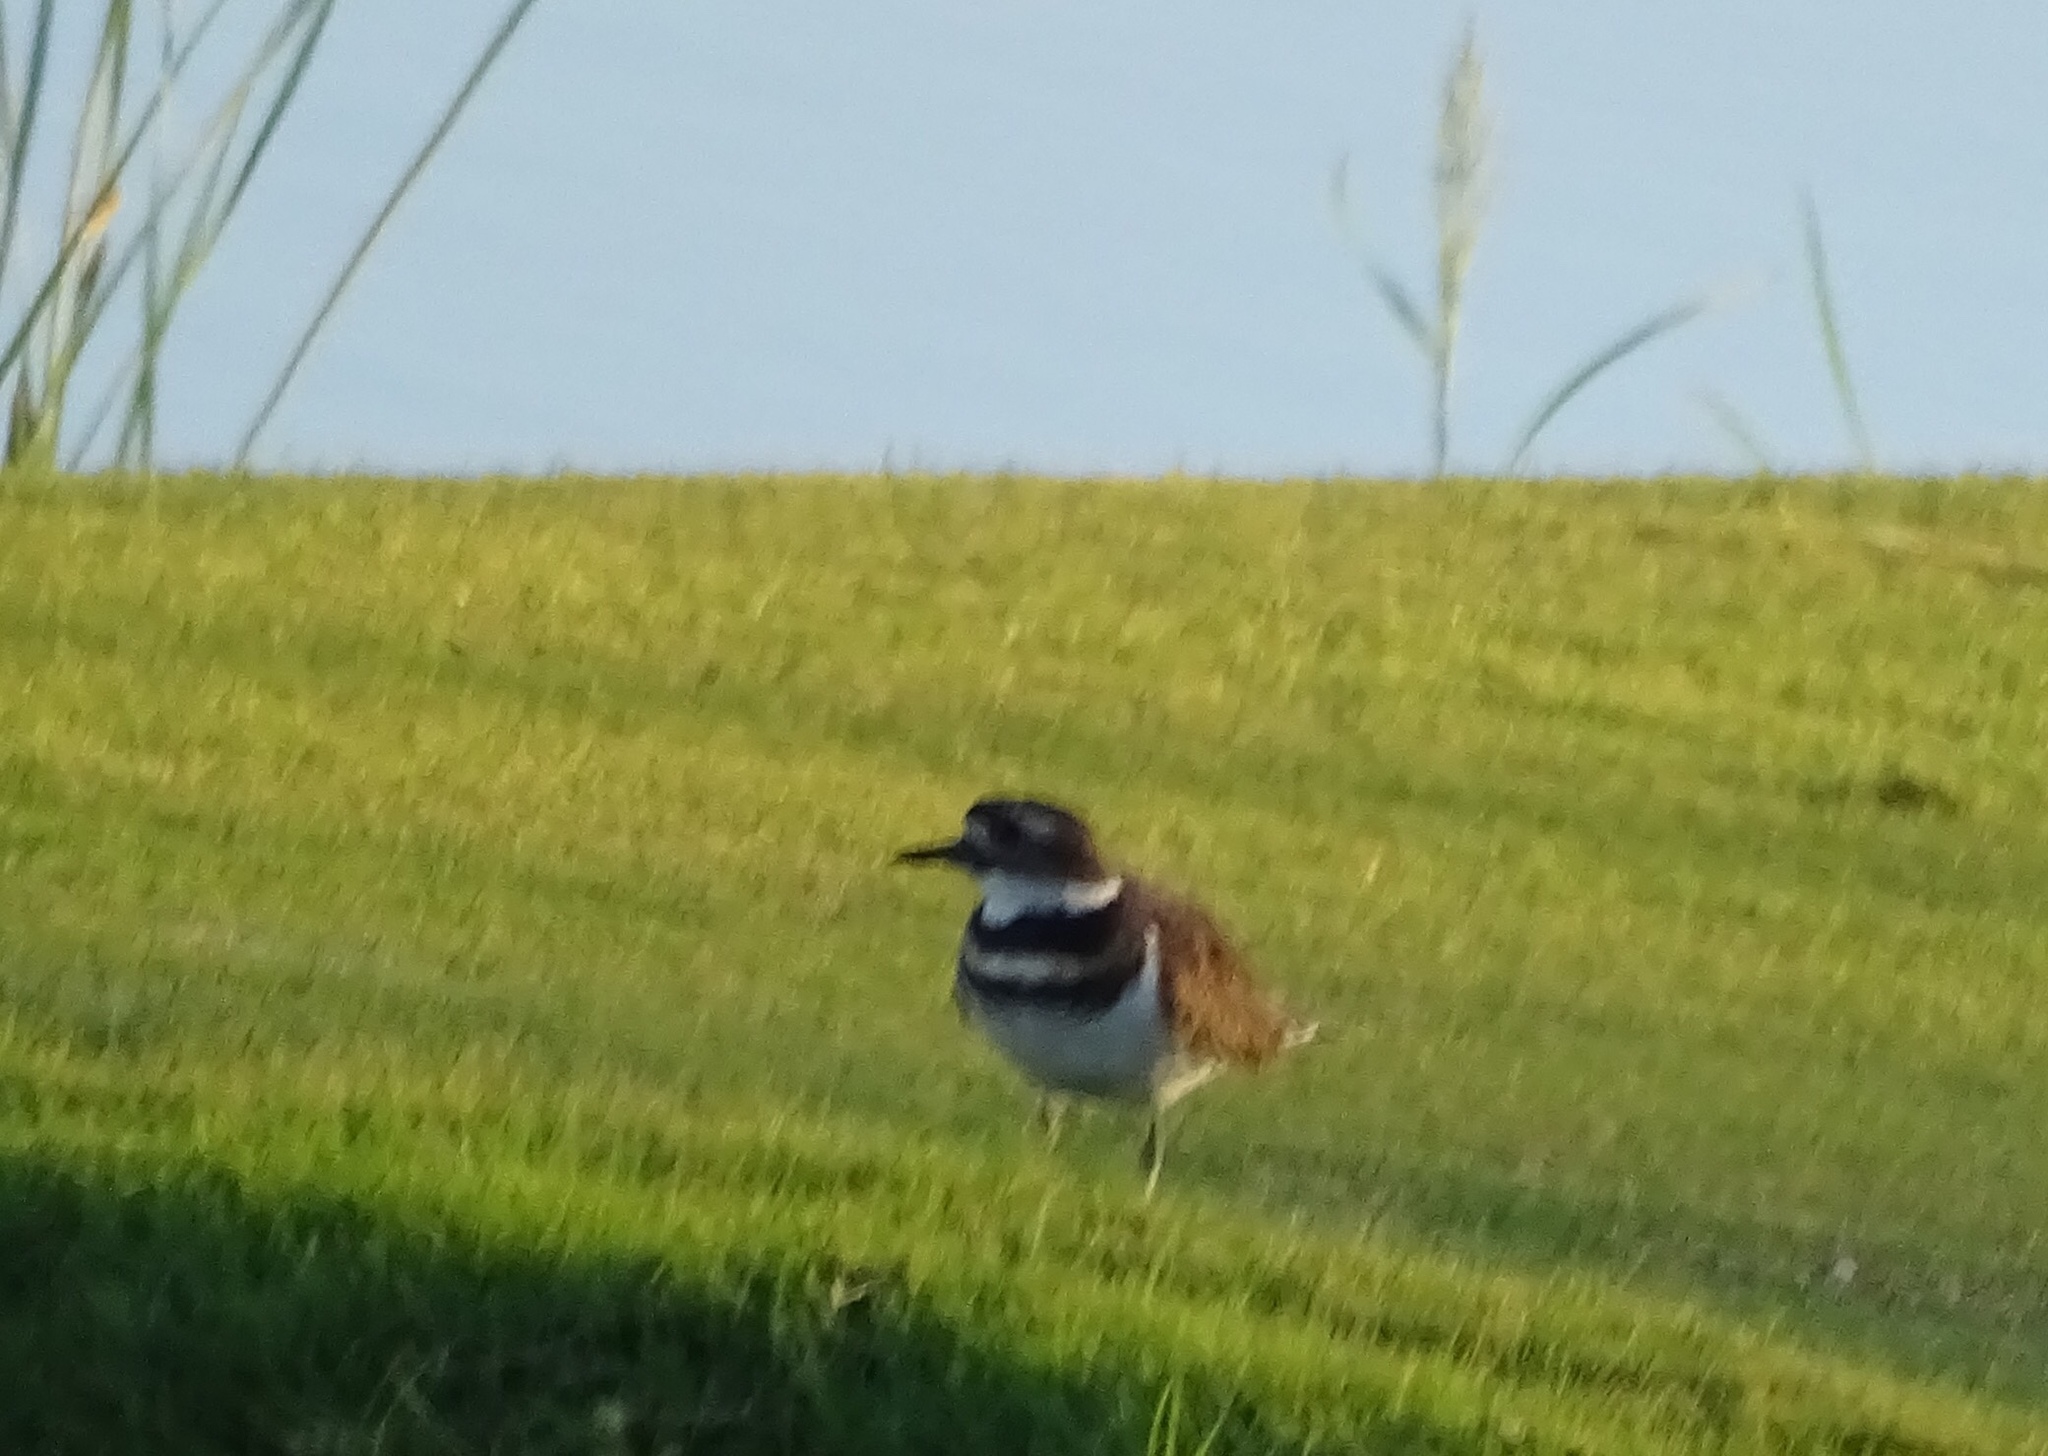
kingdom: Animalia
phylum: Chordata
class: Aves
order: Charadriiformes
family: Charadriidae
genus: Charadrius
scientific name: Charadrius vociferus
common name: Killdeer
